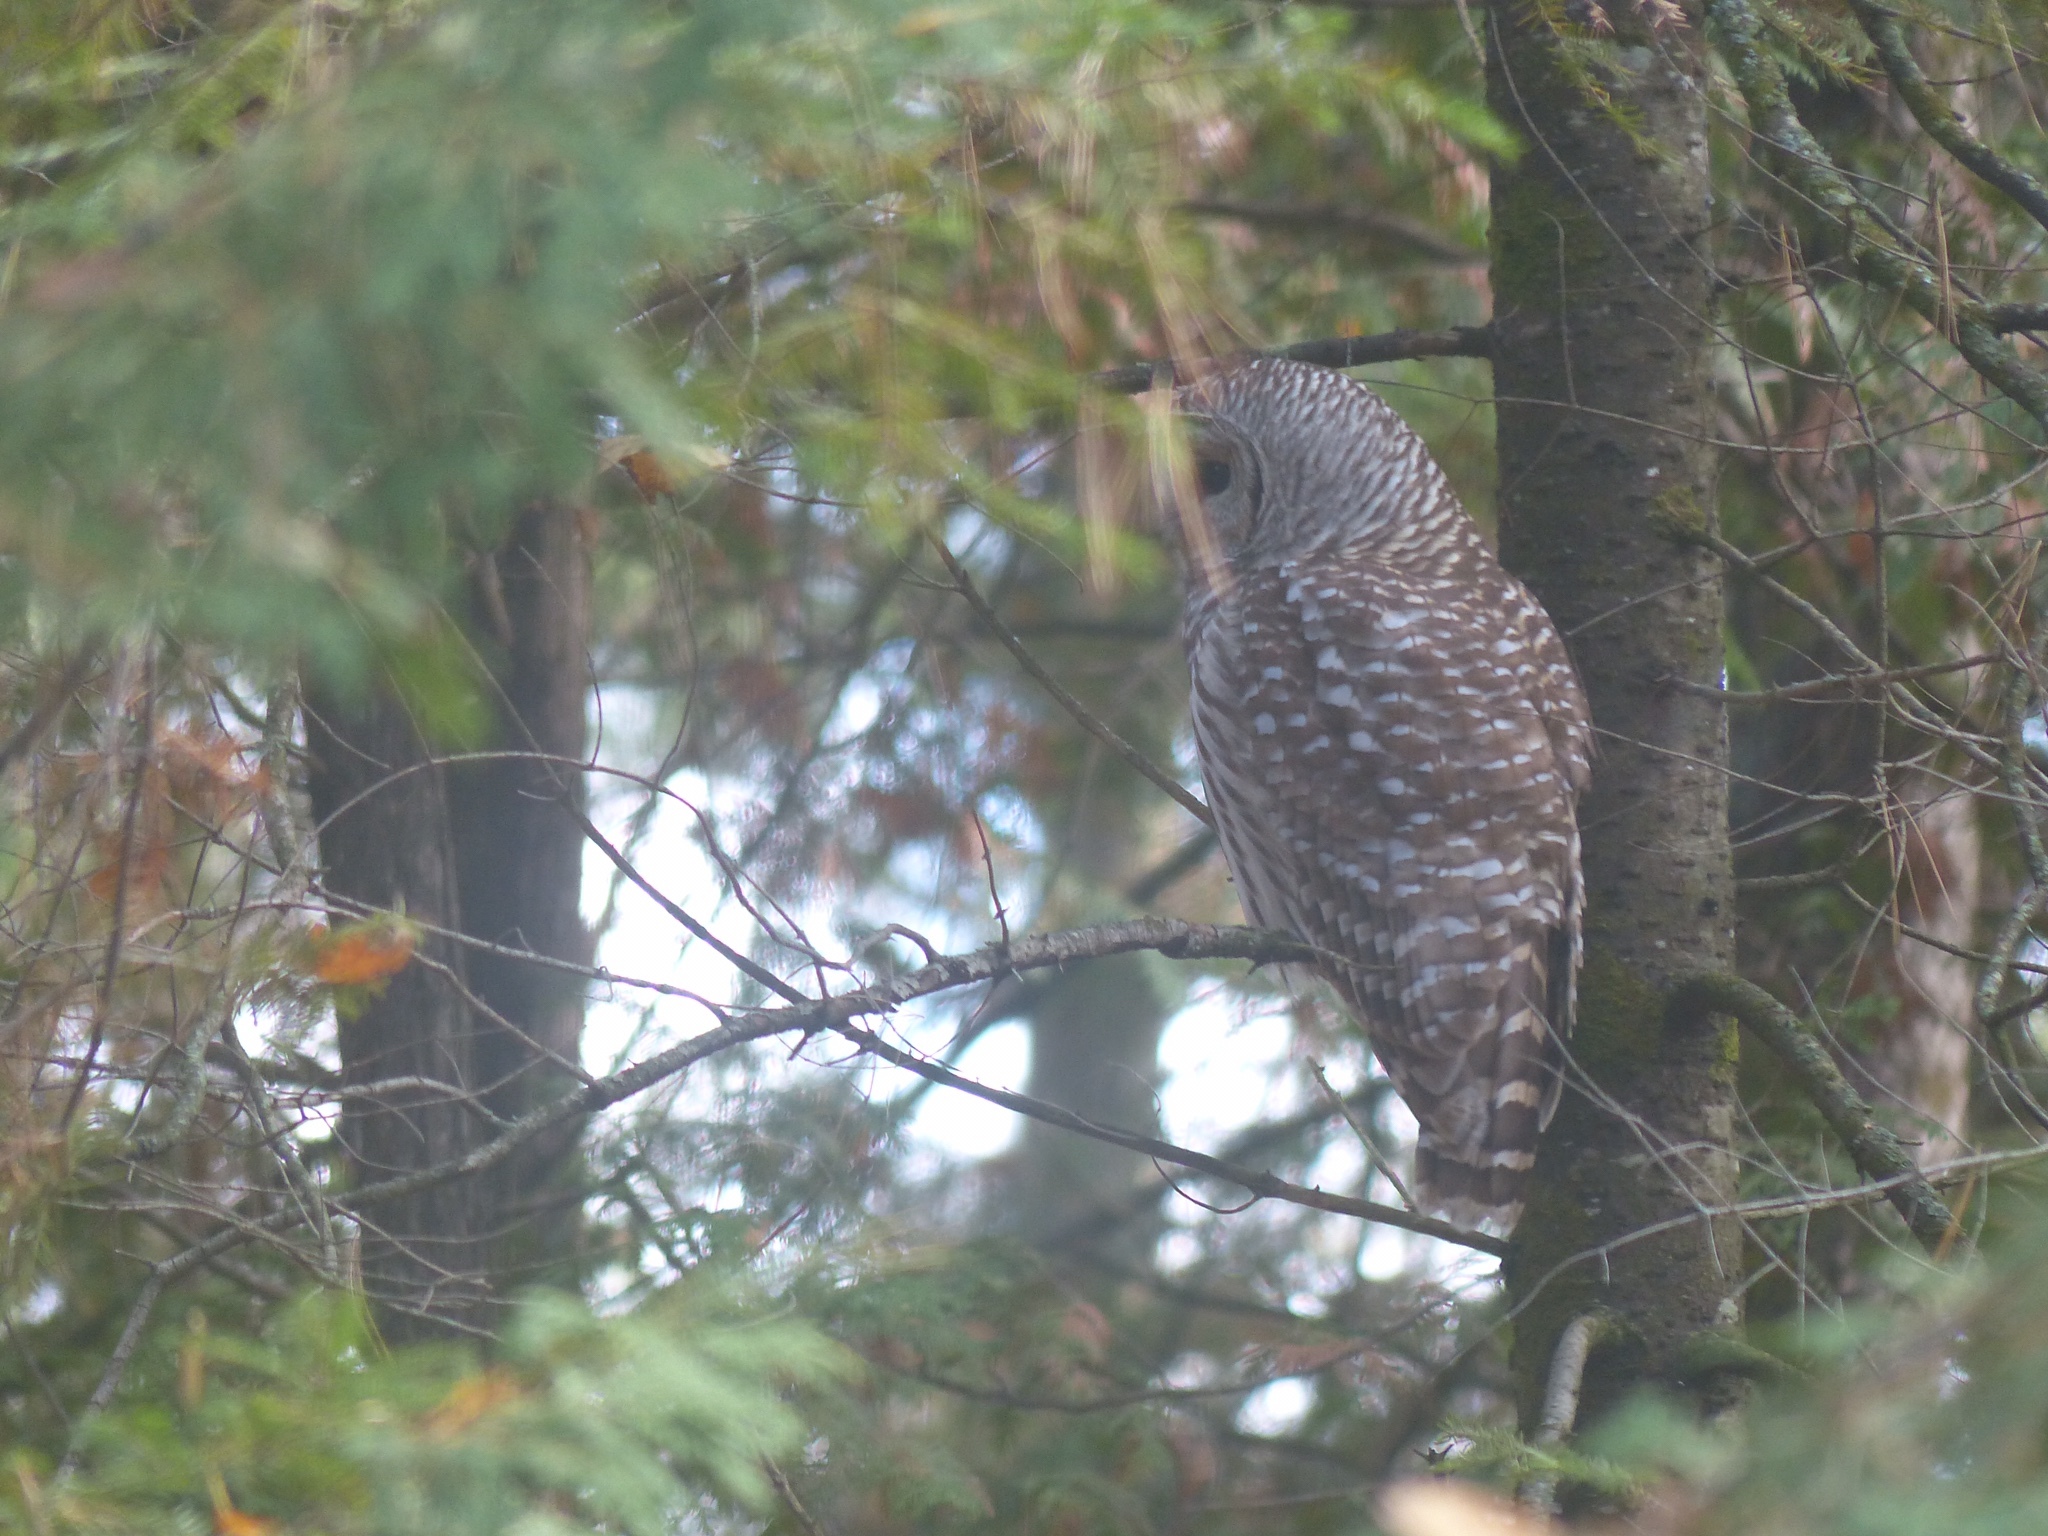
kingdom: Animalia
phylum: Chordata
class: Aves
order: Strigiformes
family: Strigidae
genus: Strix
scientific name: Strix varia
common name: Barred owl
